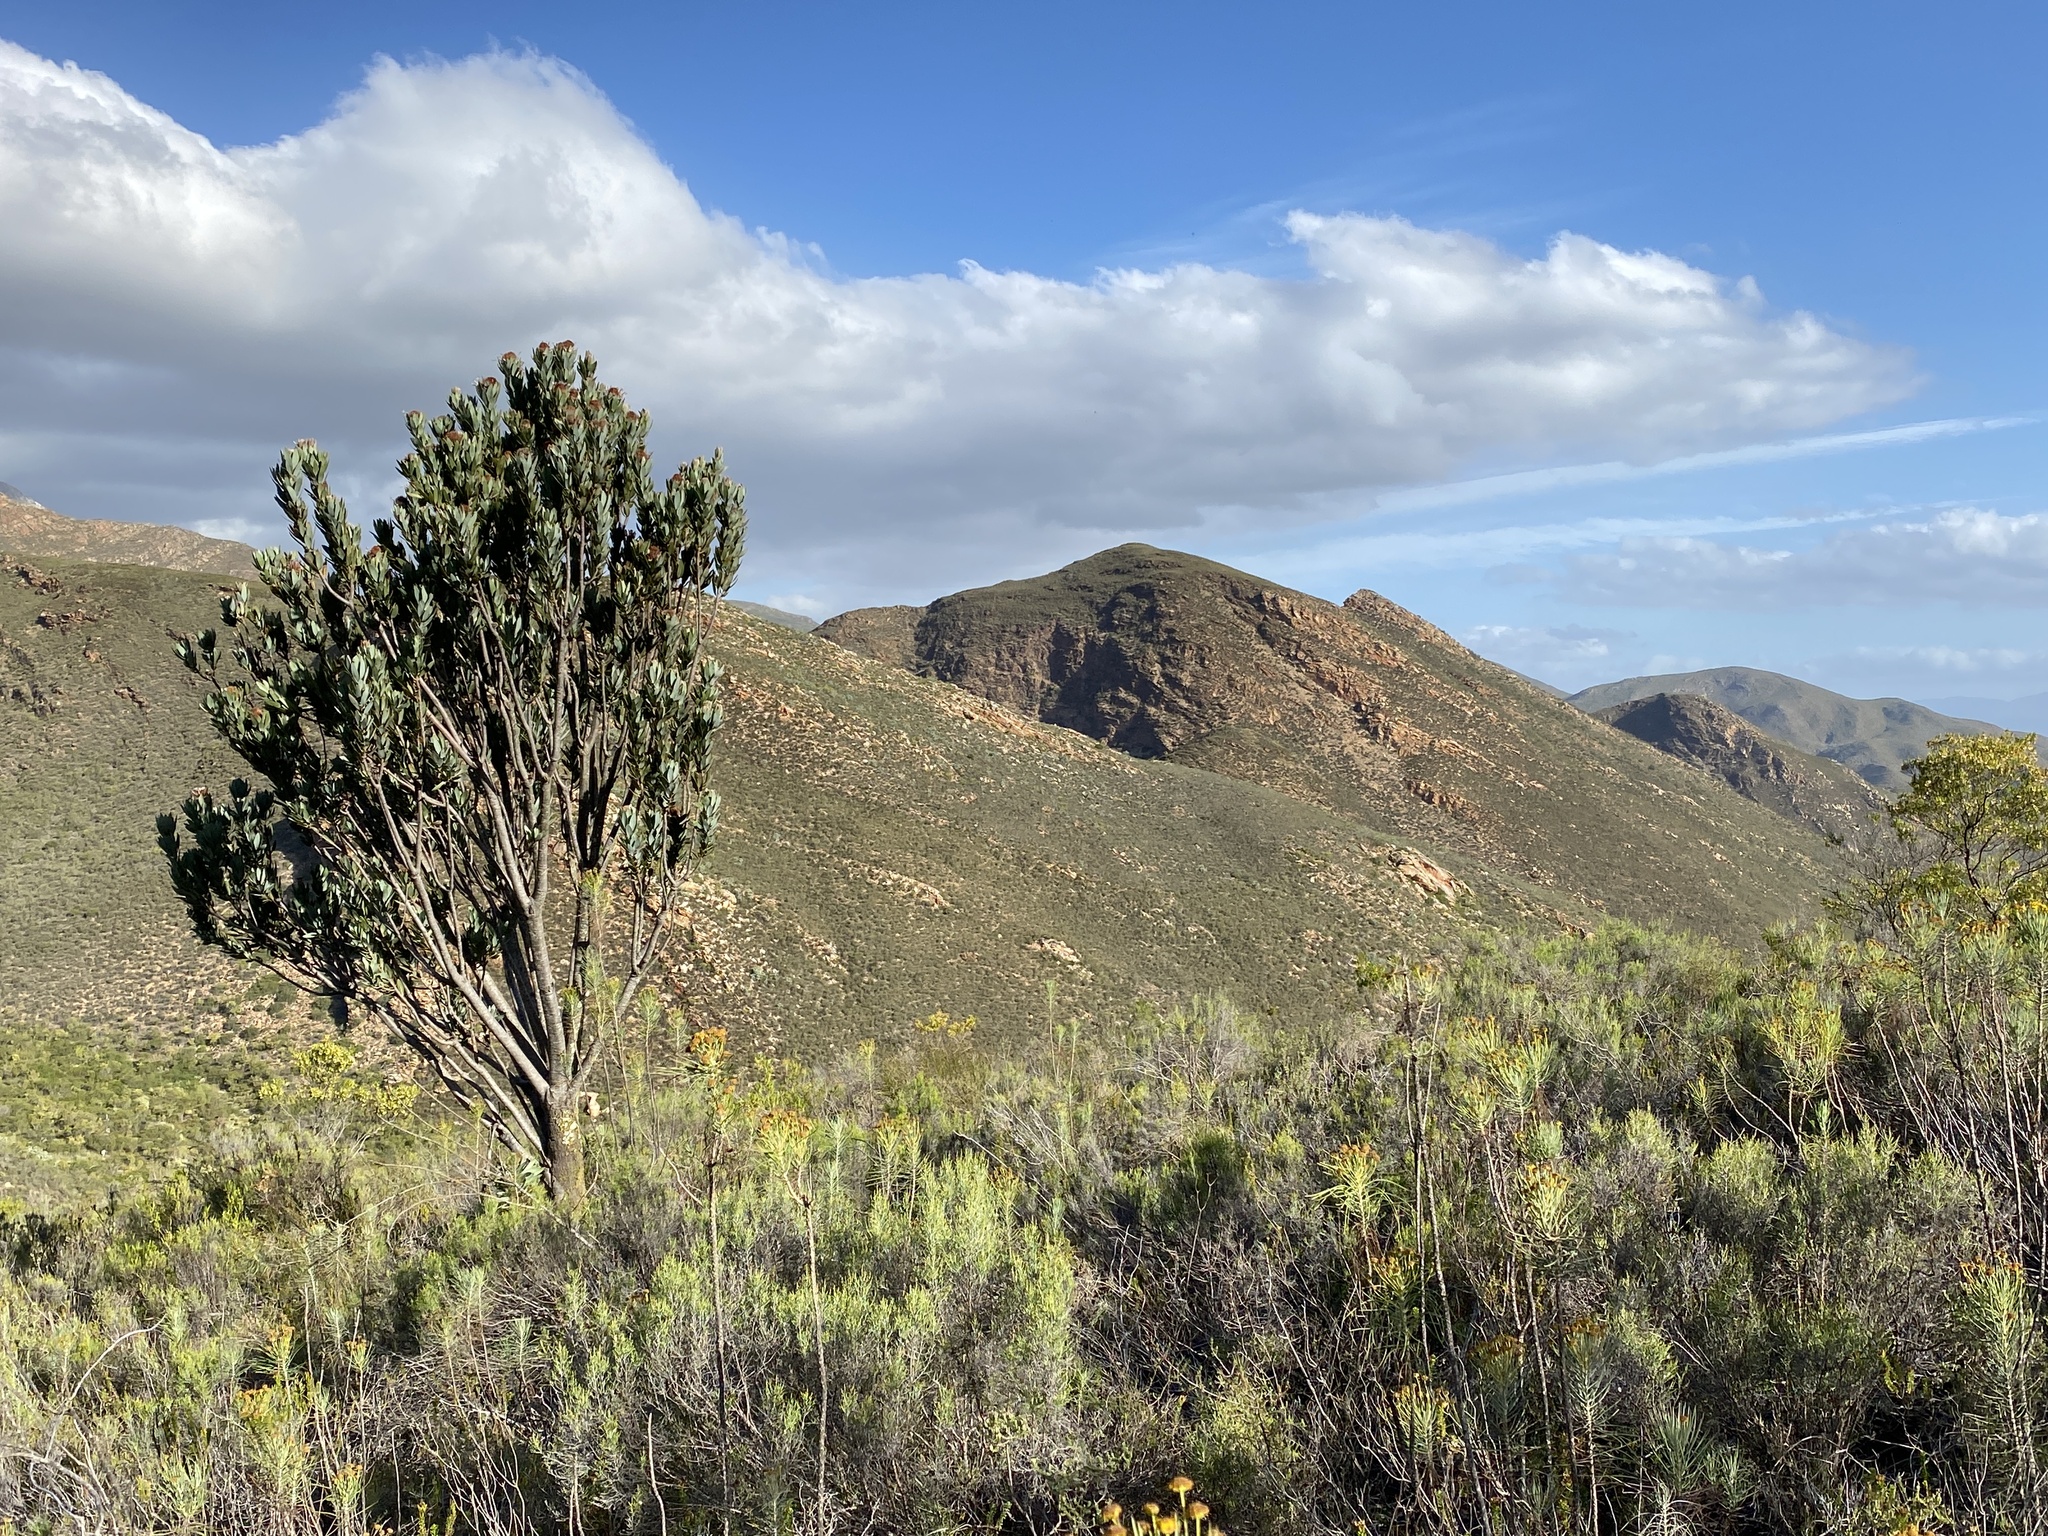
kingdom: Plantae
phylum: Tracheophyta
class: Magnoliopsida
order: Proteales
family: Proteaceae
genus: Protea
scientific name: Protea laurifolia
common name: Grey-leaf sugarbsh
